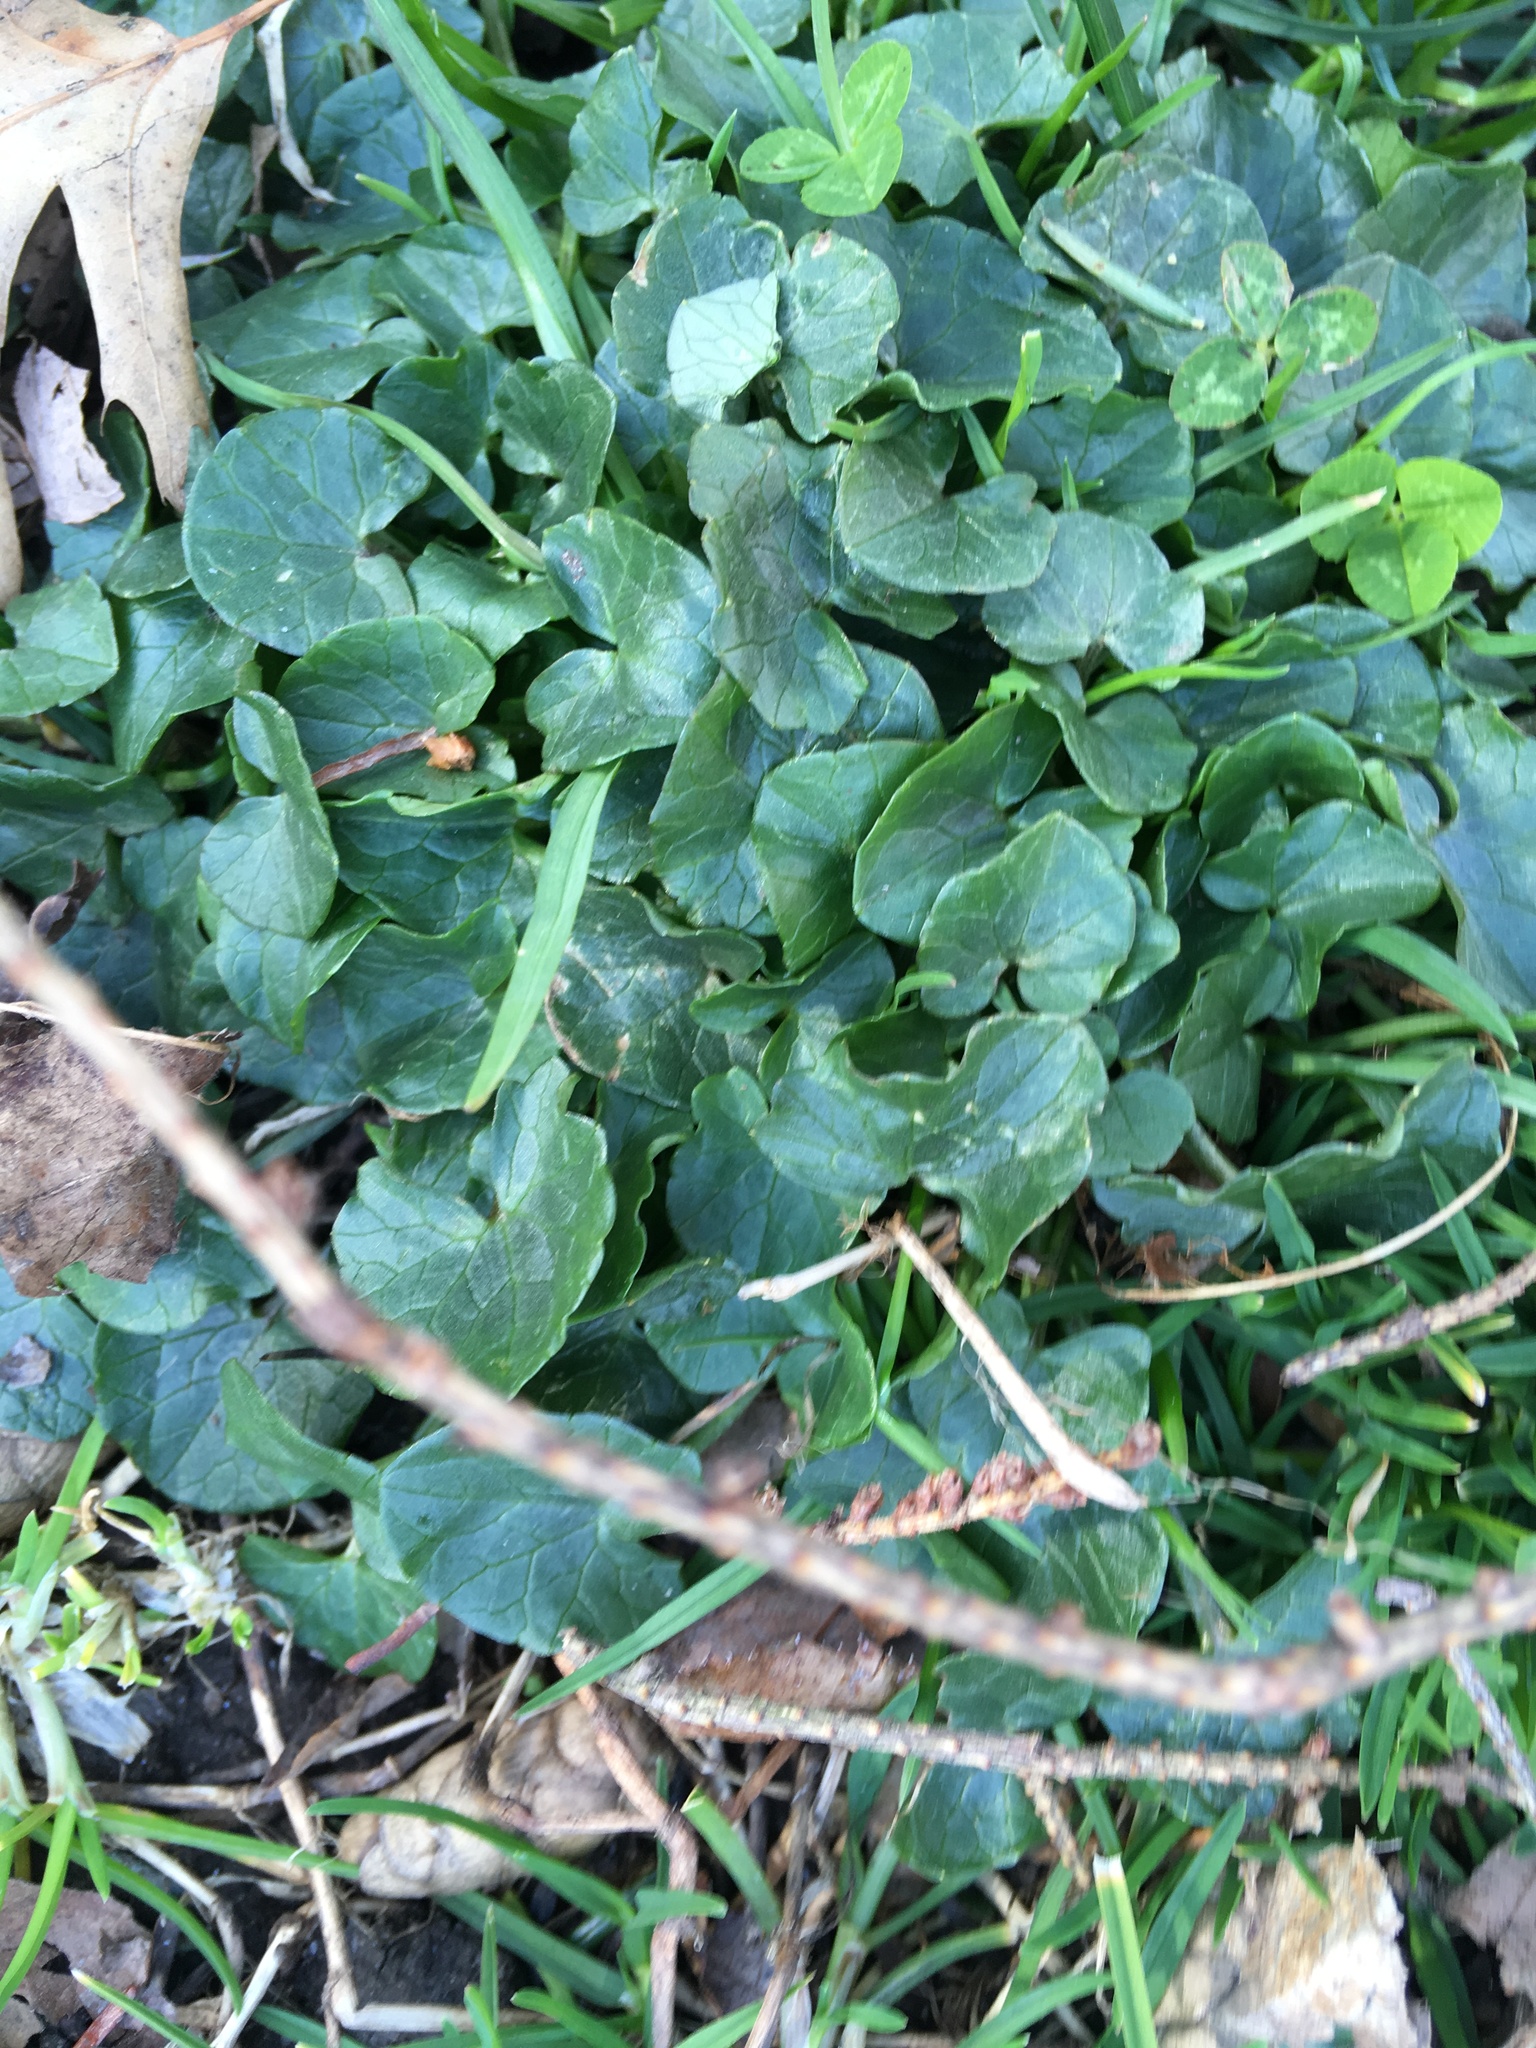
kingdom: Plantae
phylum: Tracheophyta
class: Magnoliopsida
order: Ranunculales
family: Ranunculaceae
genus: Ficaria
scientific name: Ficaria verna
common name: Lesser celandine
